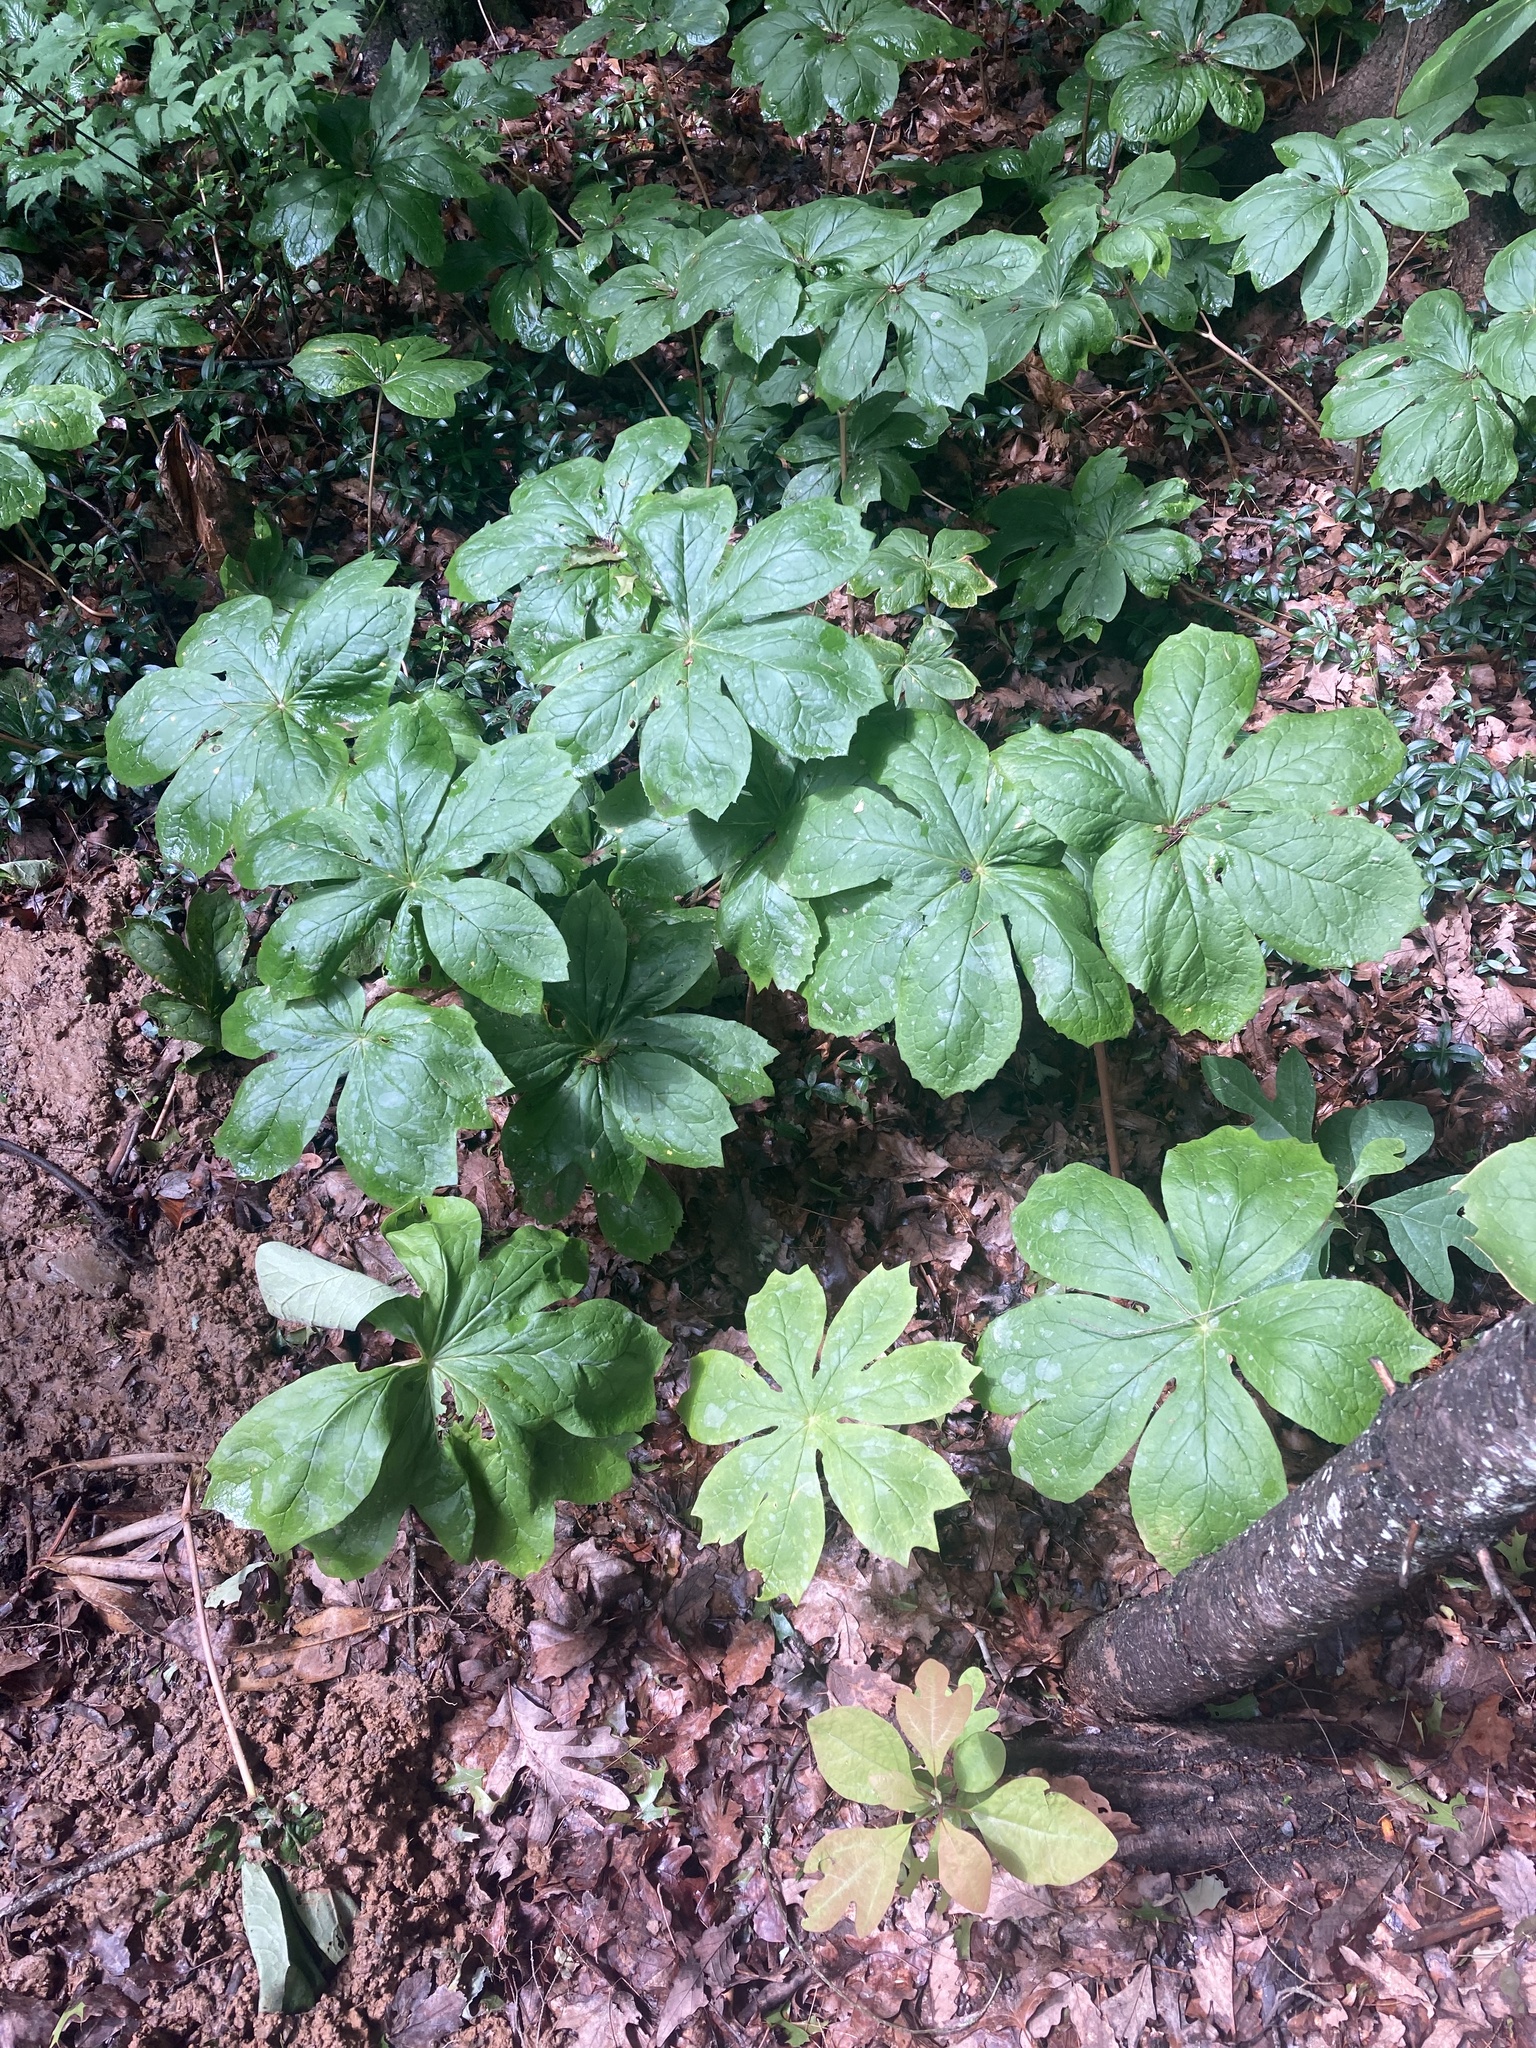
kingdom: Plantae
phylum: Tracheophyta
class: Magnoliopsida
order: Ranunculales
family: Berberidaceae
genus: Podophyllum
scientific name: Podophyllum peltatum
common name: Wild mandrake
